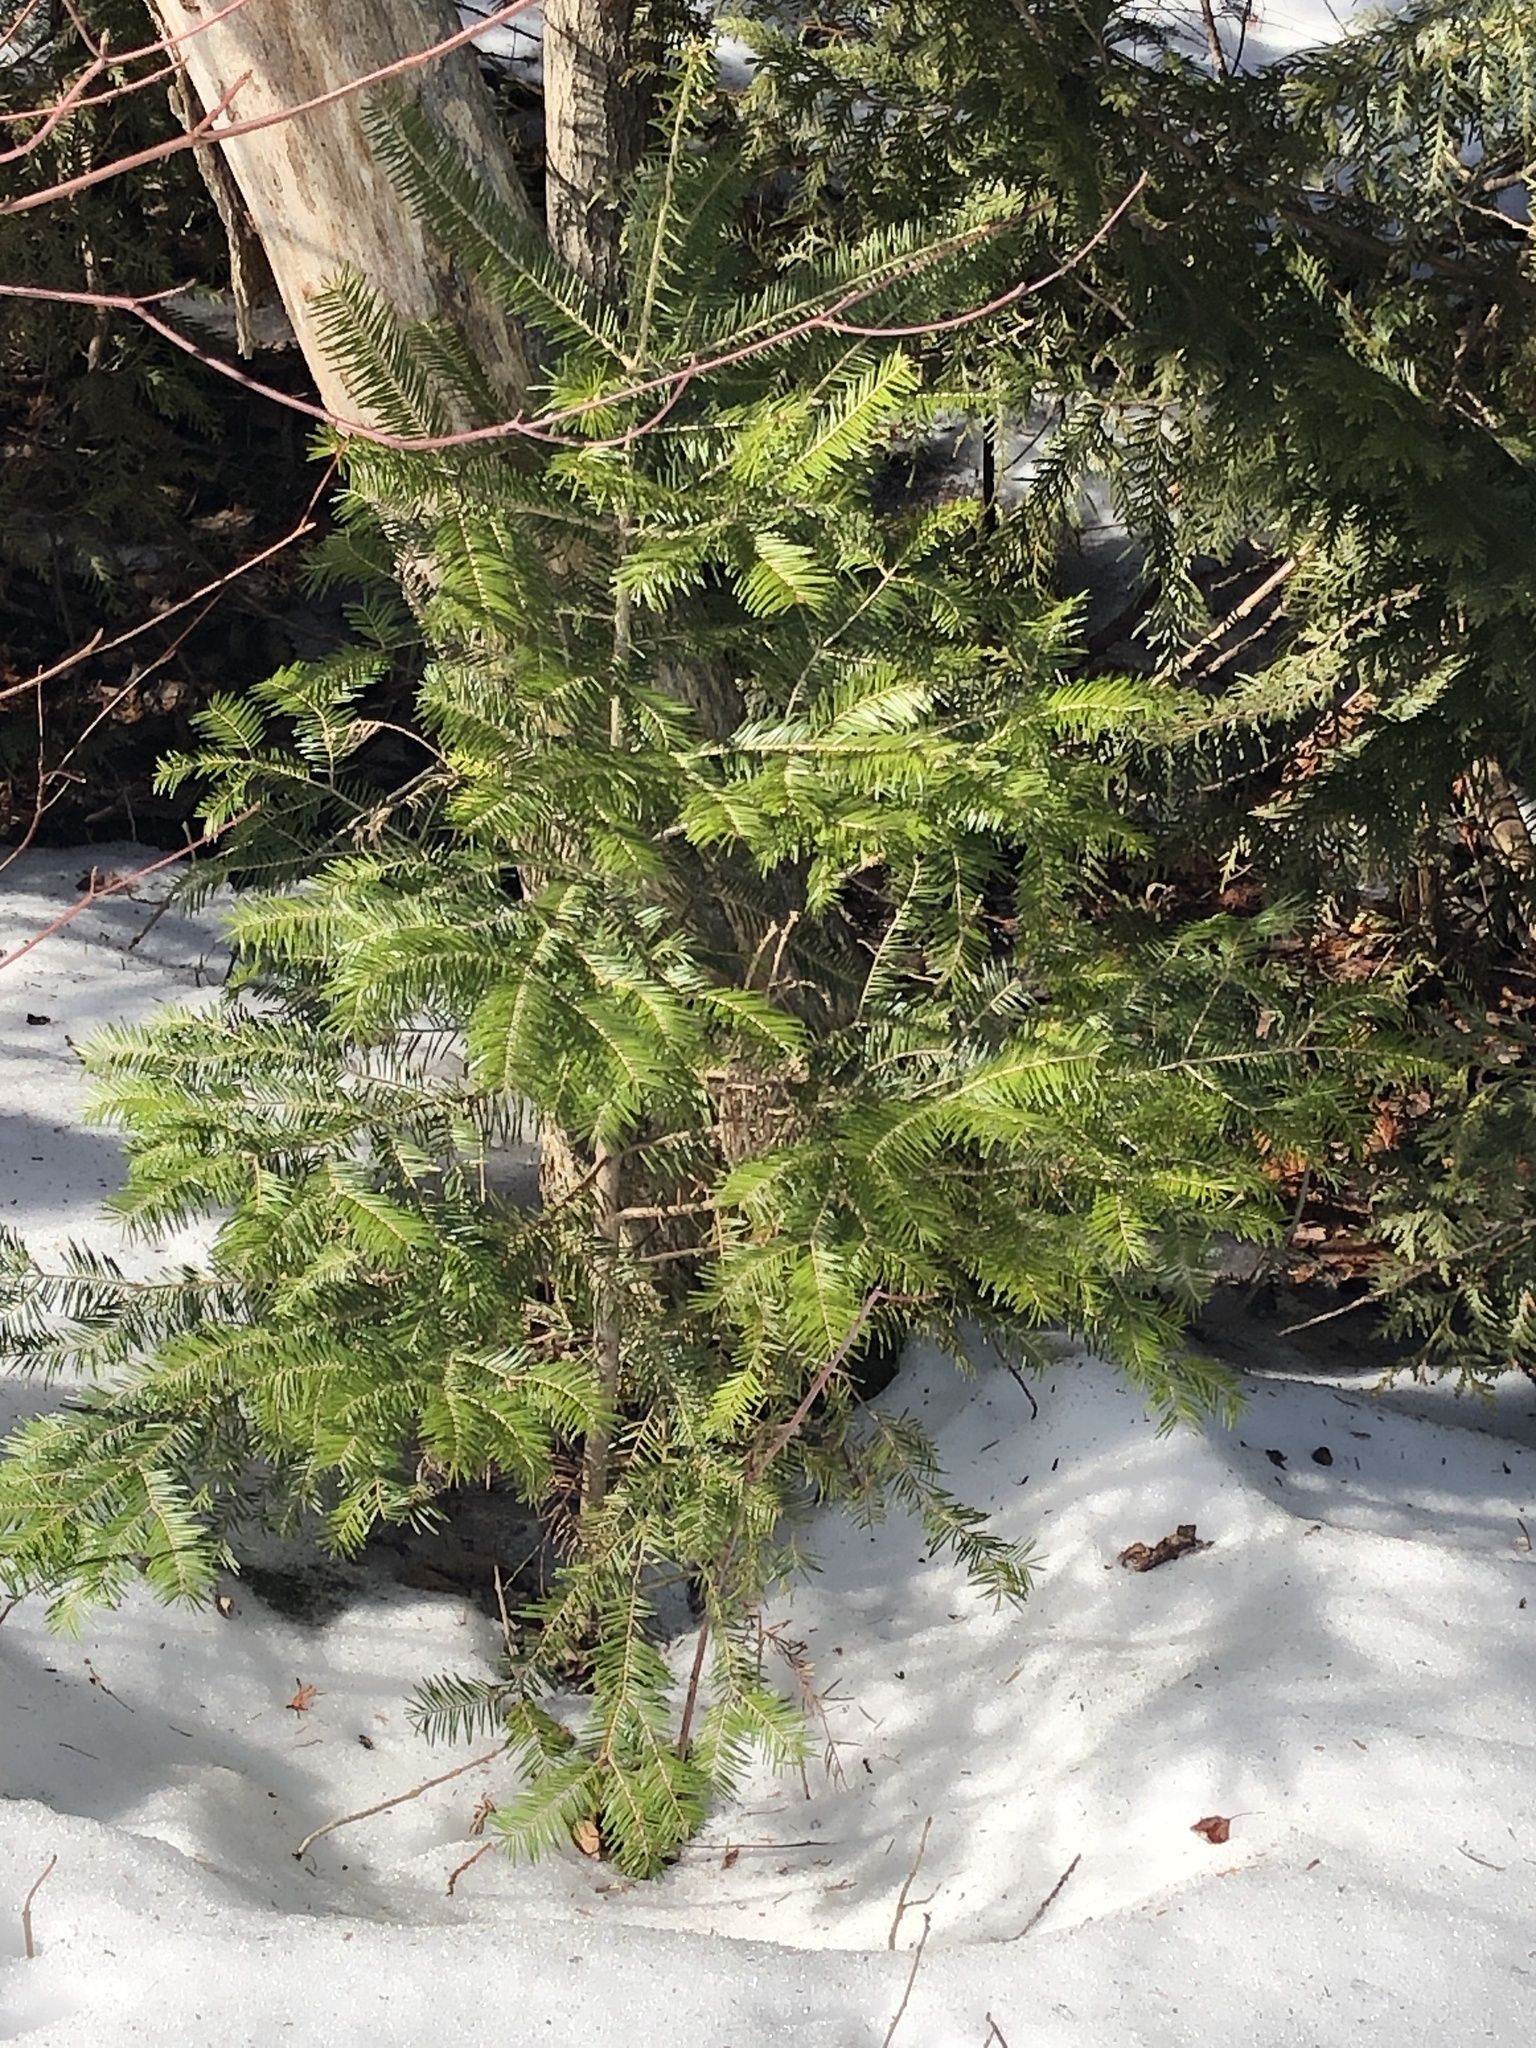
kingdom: Plantae
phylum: Tracheophyta
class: Pinopsida
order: Pinales
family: Pinaceae
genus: Abies
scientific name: Abies balsamea
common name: Balsam fir
